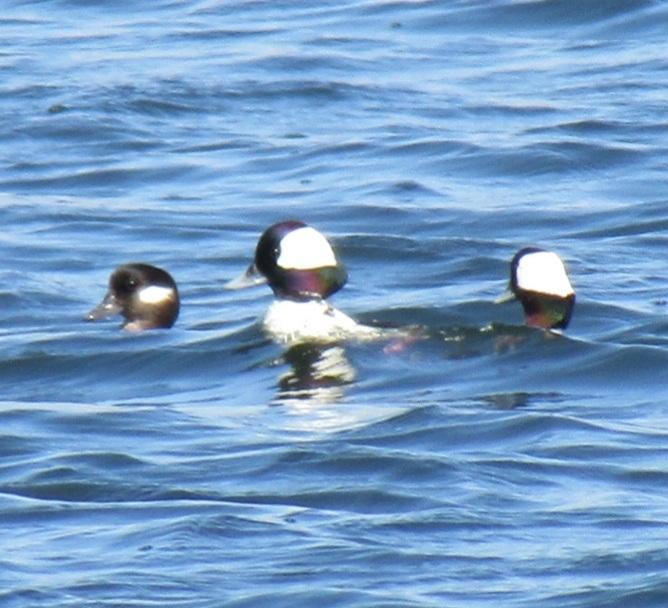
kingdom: Animalia
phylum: Chordata
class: Aves
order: Anseriformes
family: Anatidae
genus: Bucephala
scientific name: Bucephala albeola
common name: Bufflehead
